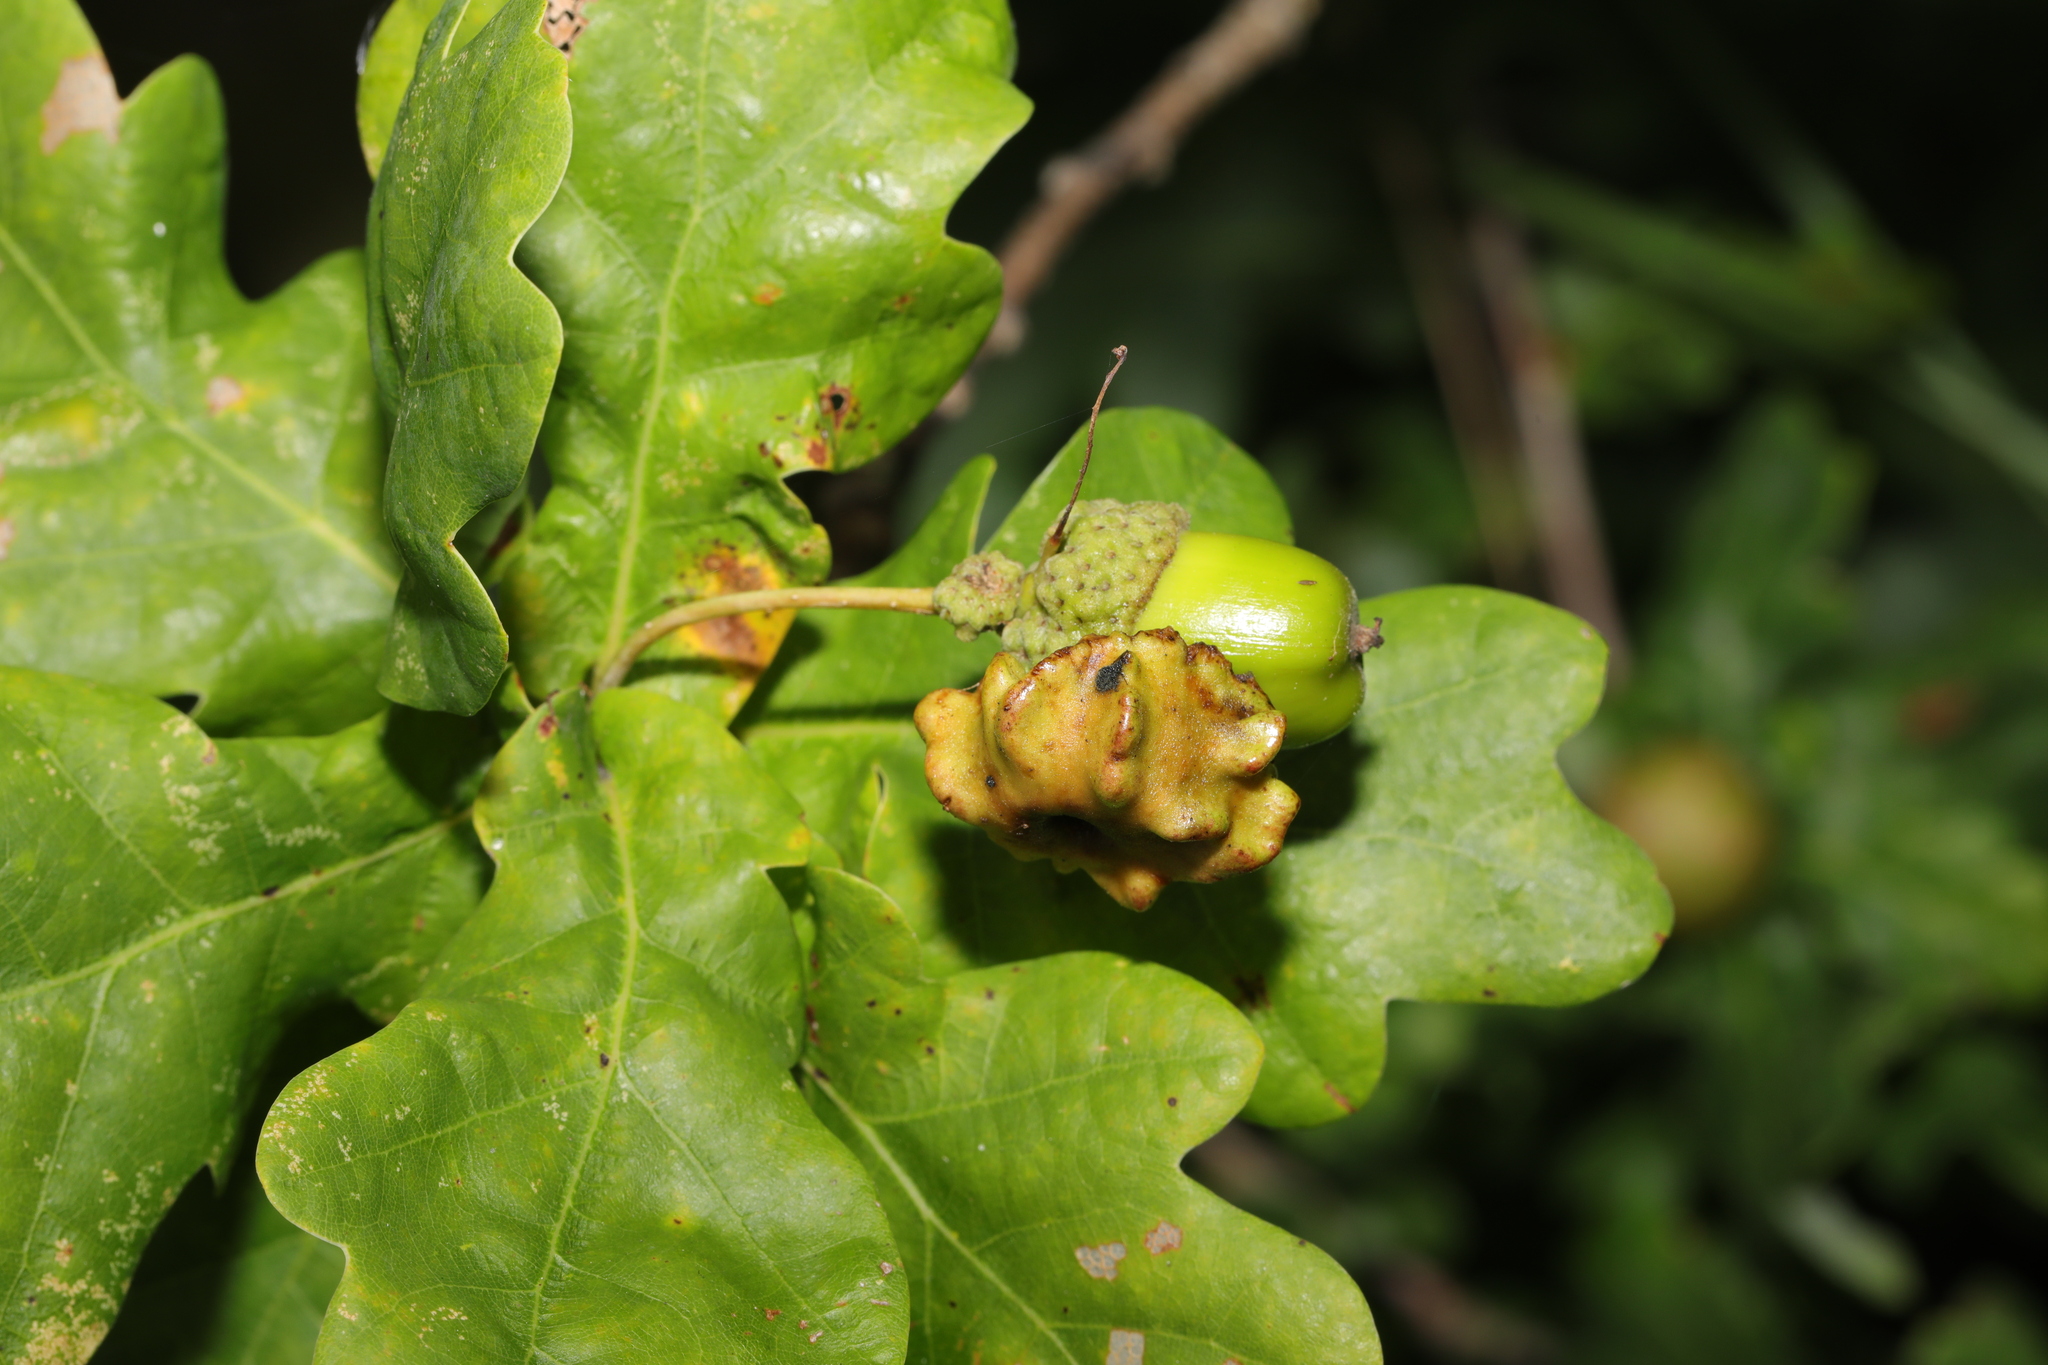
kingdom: Animalia
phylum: Arthropoda
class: Insecta
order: Hymenoptera
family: Cynipidae
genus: Andricus
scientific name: Andricus quercuscalicis
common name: Knopper gall
